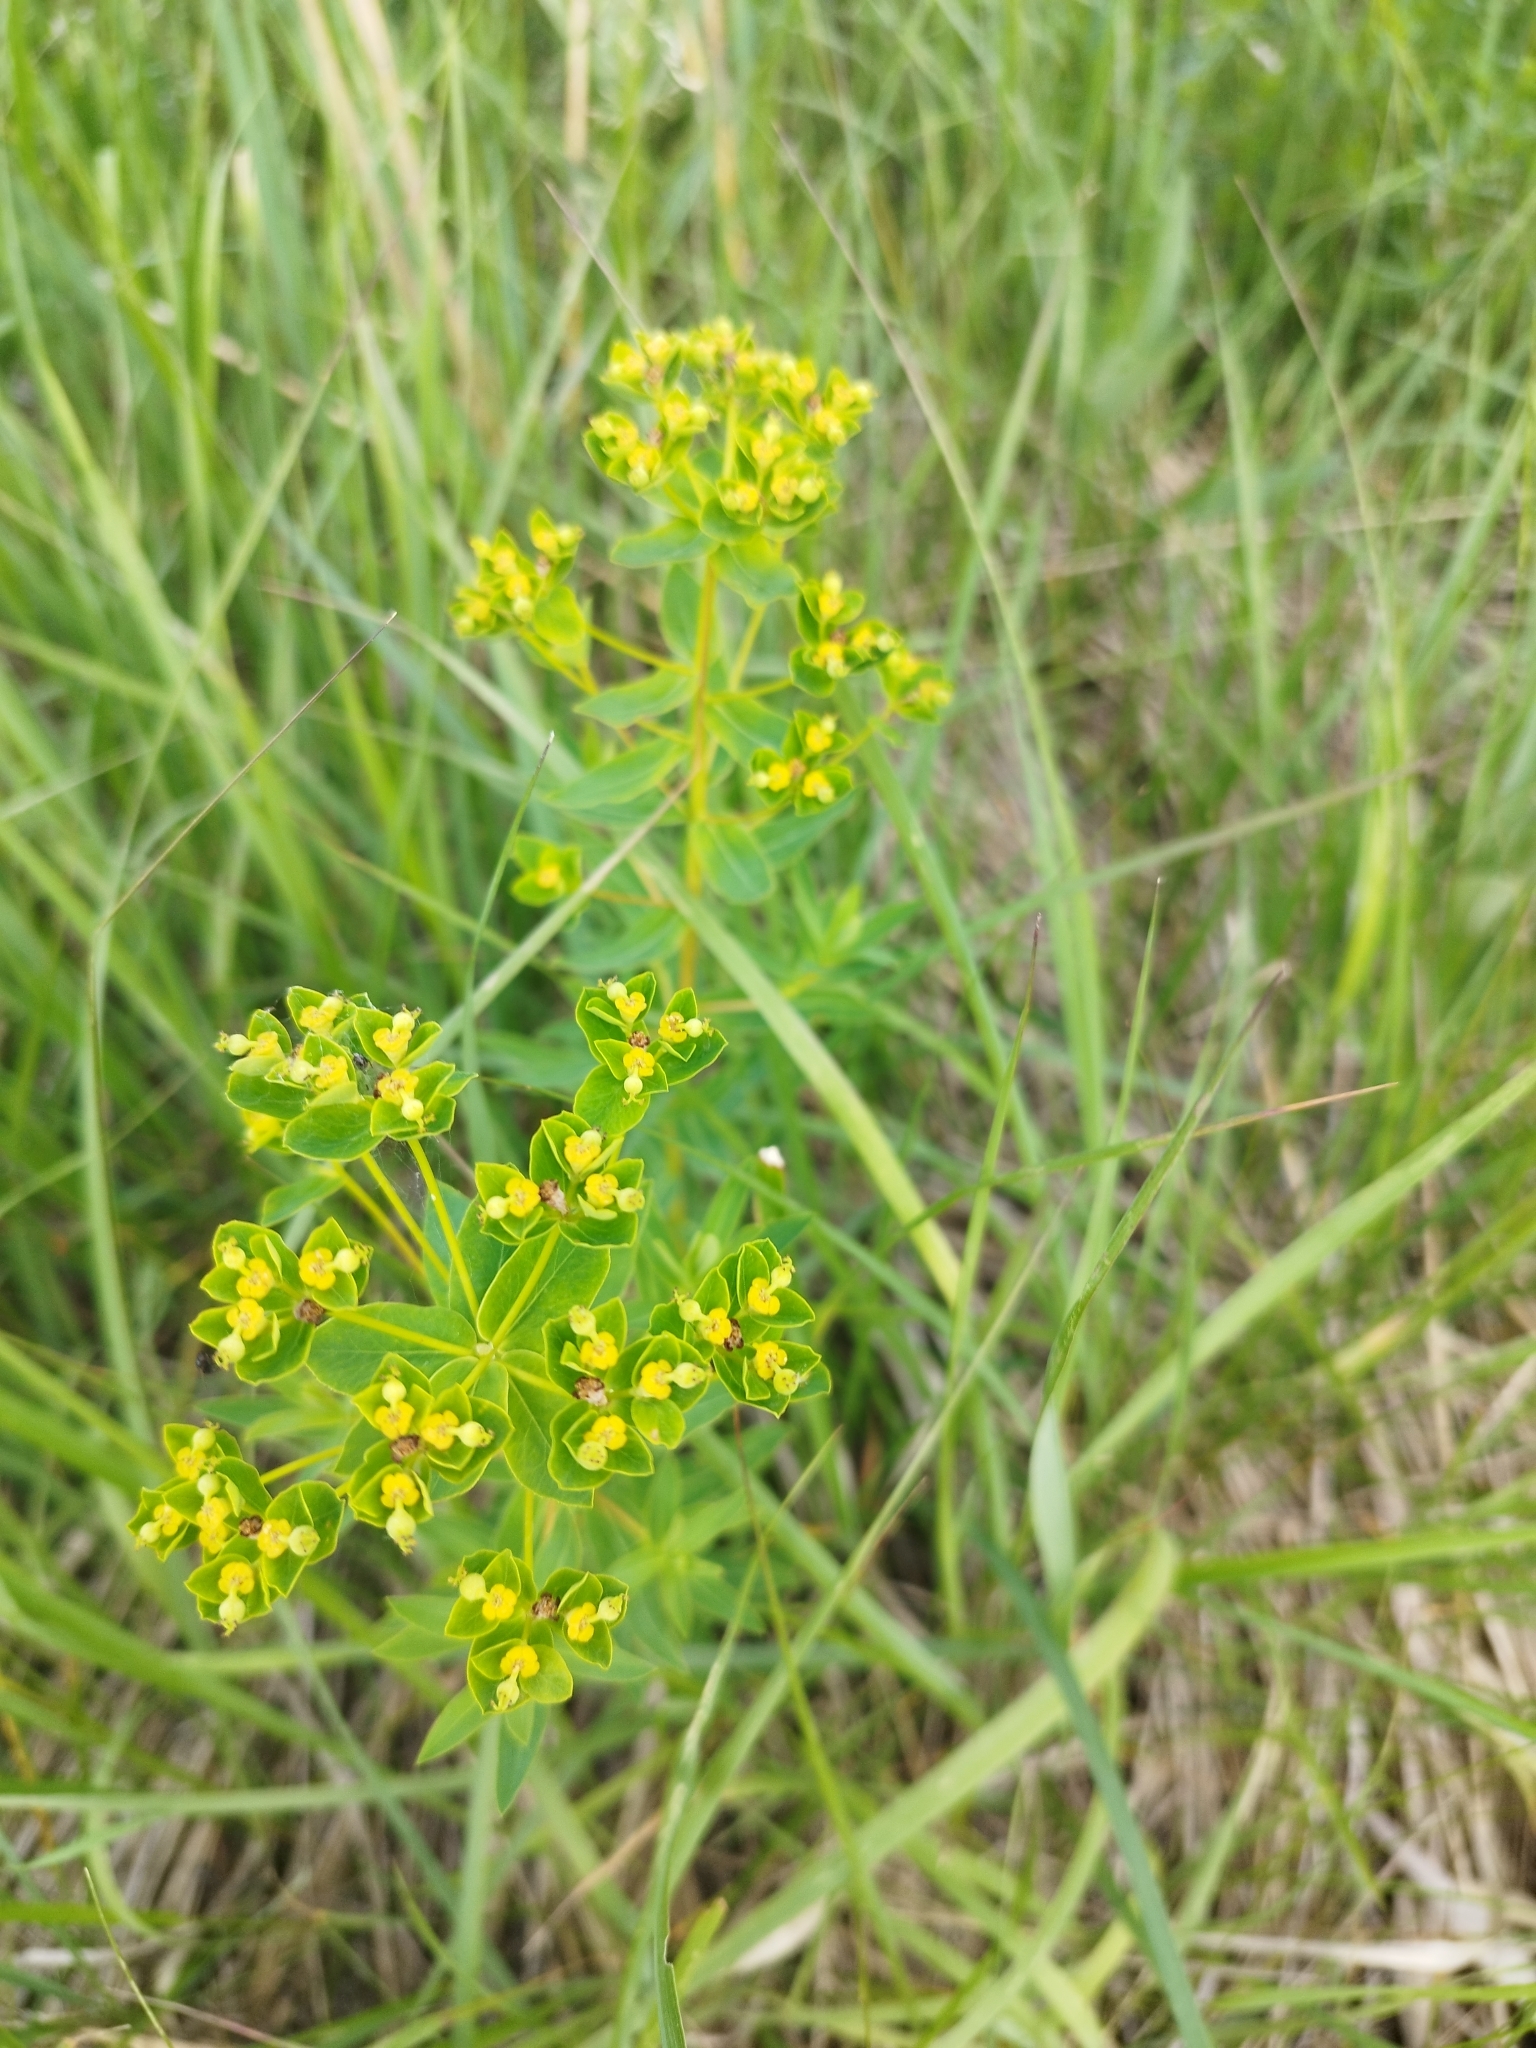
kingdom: Plantae
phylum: Tracheophyta
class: Magnoliopsida
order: Malpighiales
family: Euphorbiaceae
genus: Euphorbia
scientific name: Euphorbia semivillosa
